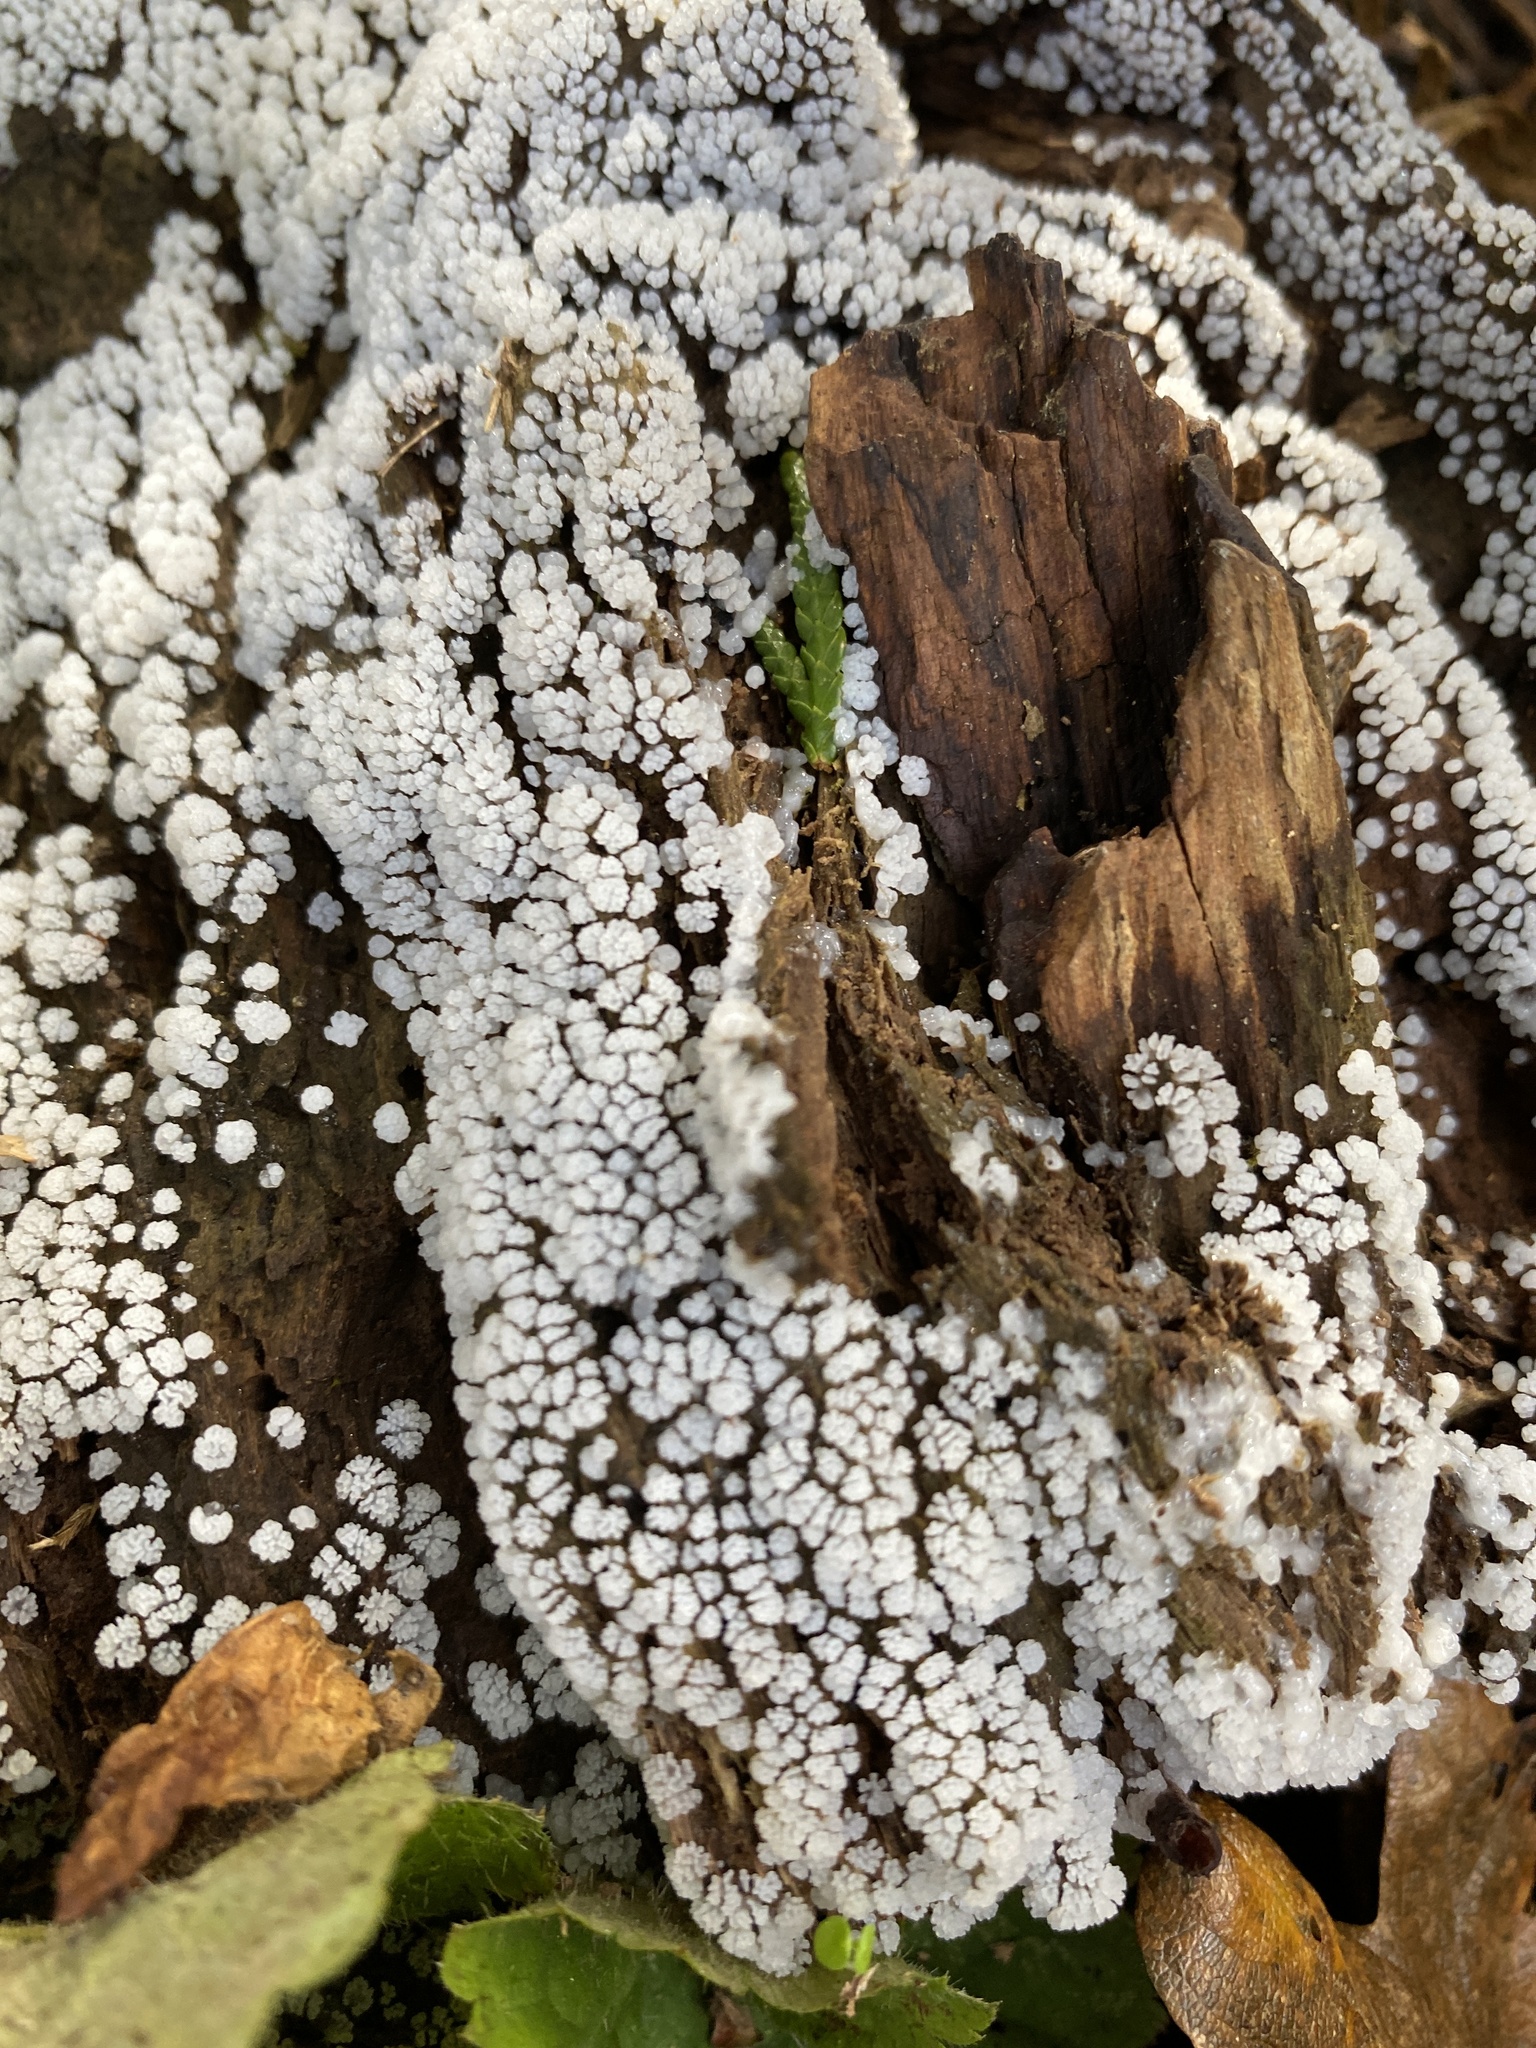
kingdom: Protozoa
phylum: Mycetozoa
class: Protosteliomycetes
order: Ceratiomyxales
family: Ceratiomyxaceae
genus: Ceratiomyxa
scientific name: Ceratiomyxa fruticulosa
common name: Honeycomb coral slime mold
